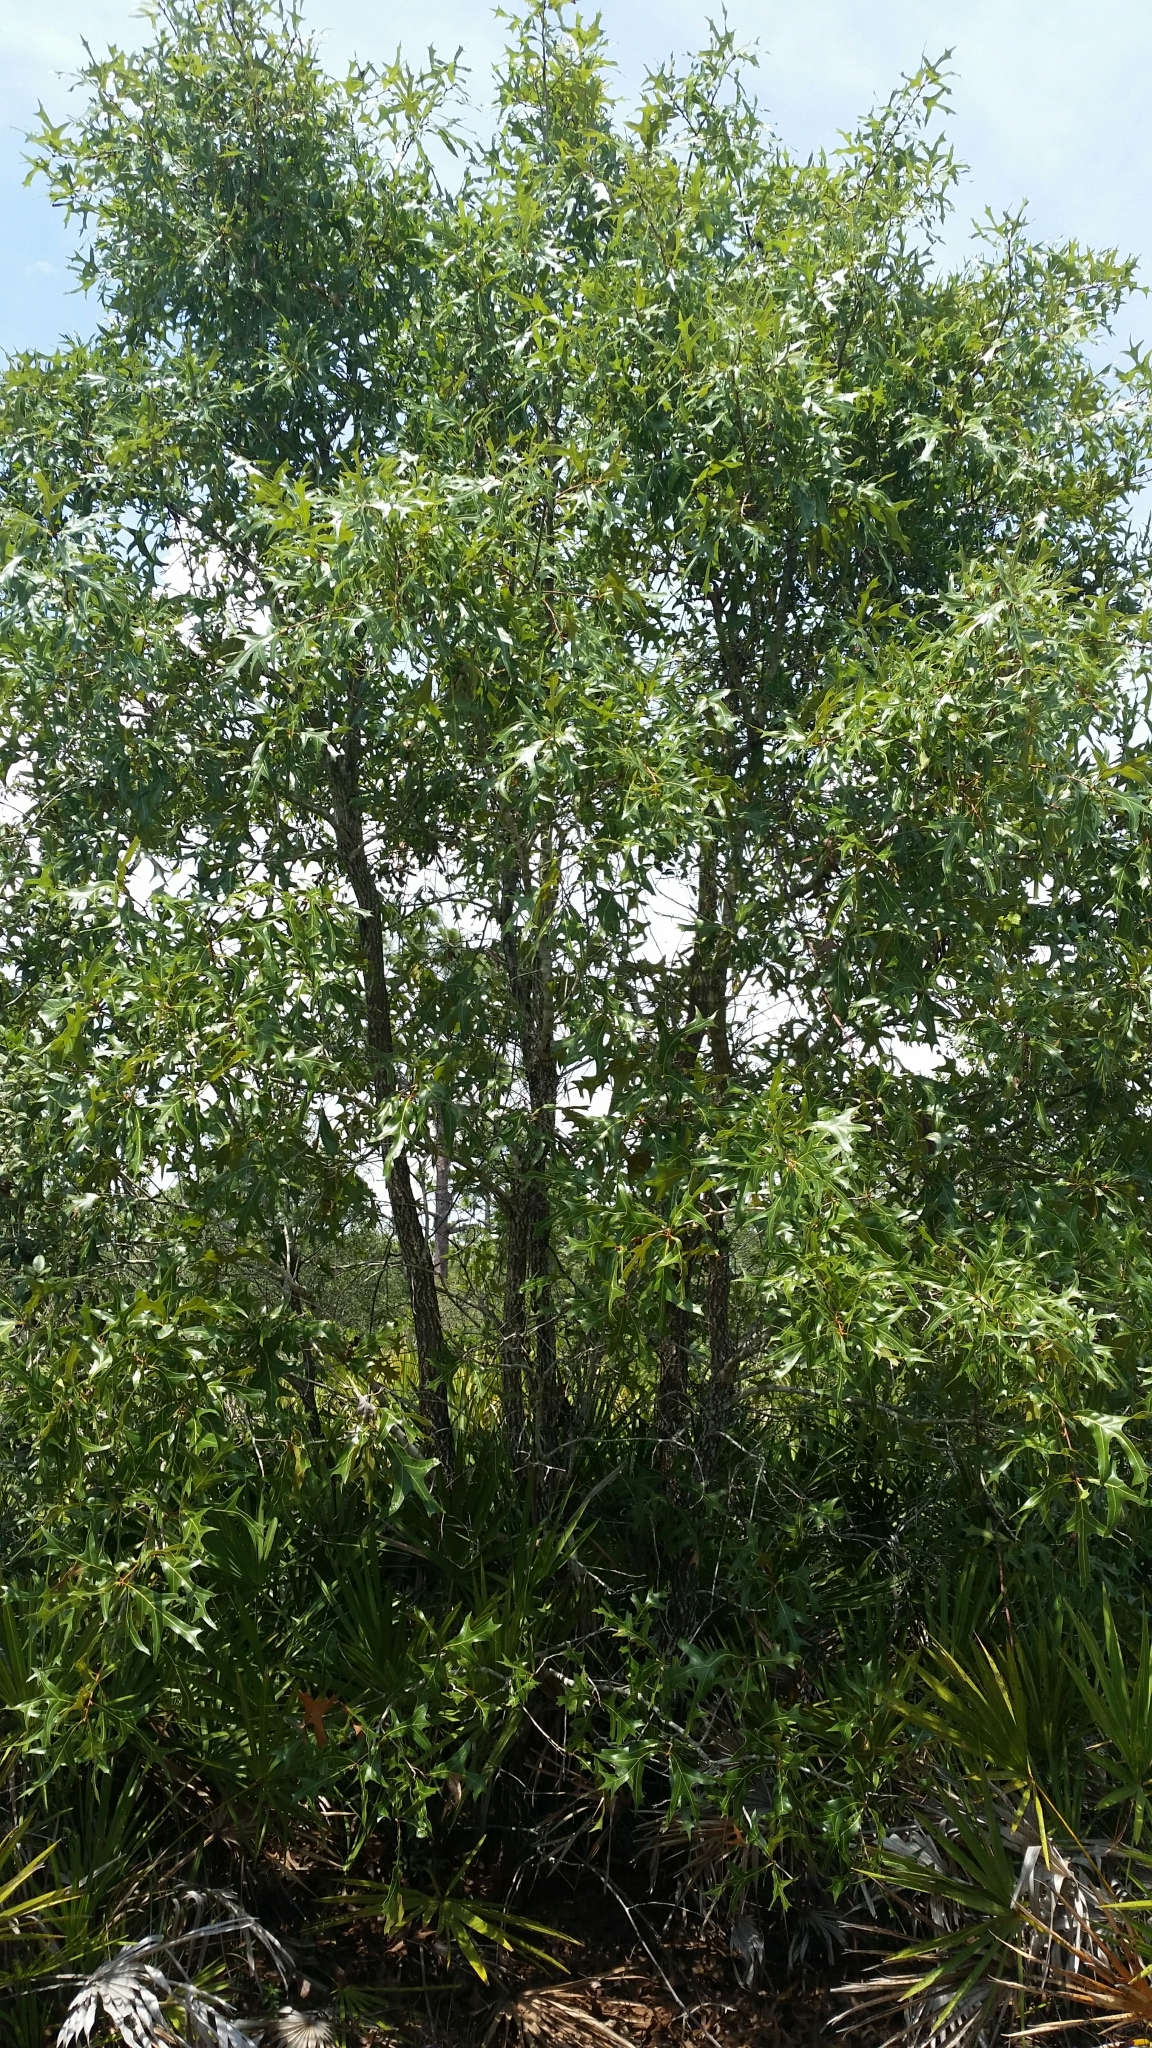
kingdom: Plantae
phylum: Tracheophyta
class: Magnoliopsida
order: Fagales
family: Fagaceae
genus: Quercus
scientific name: Quercus laevis
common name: Turkey oak
